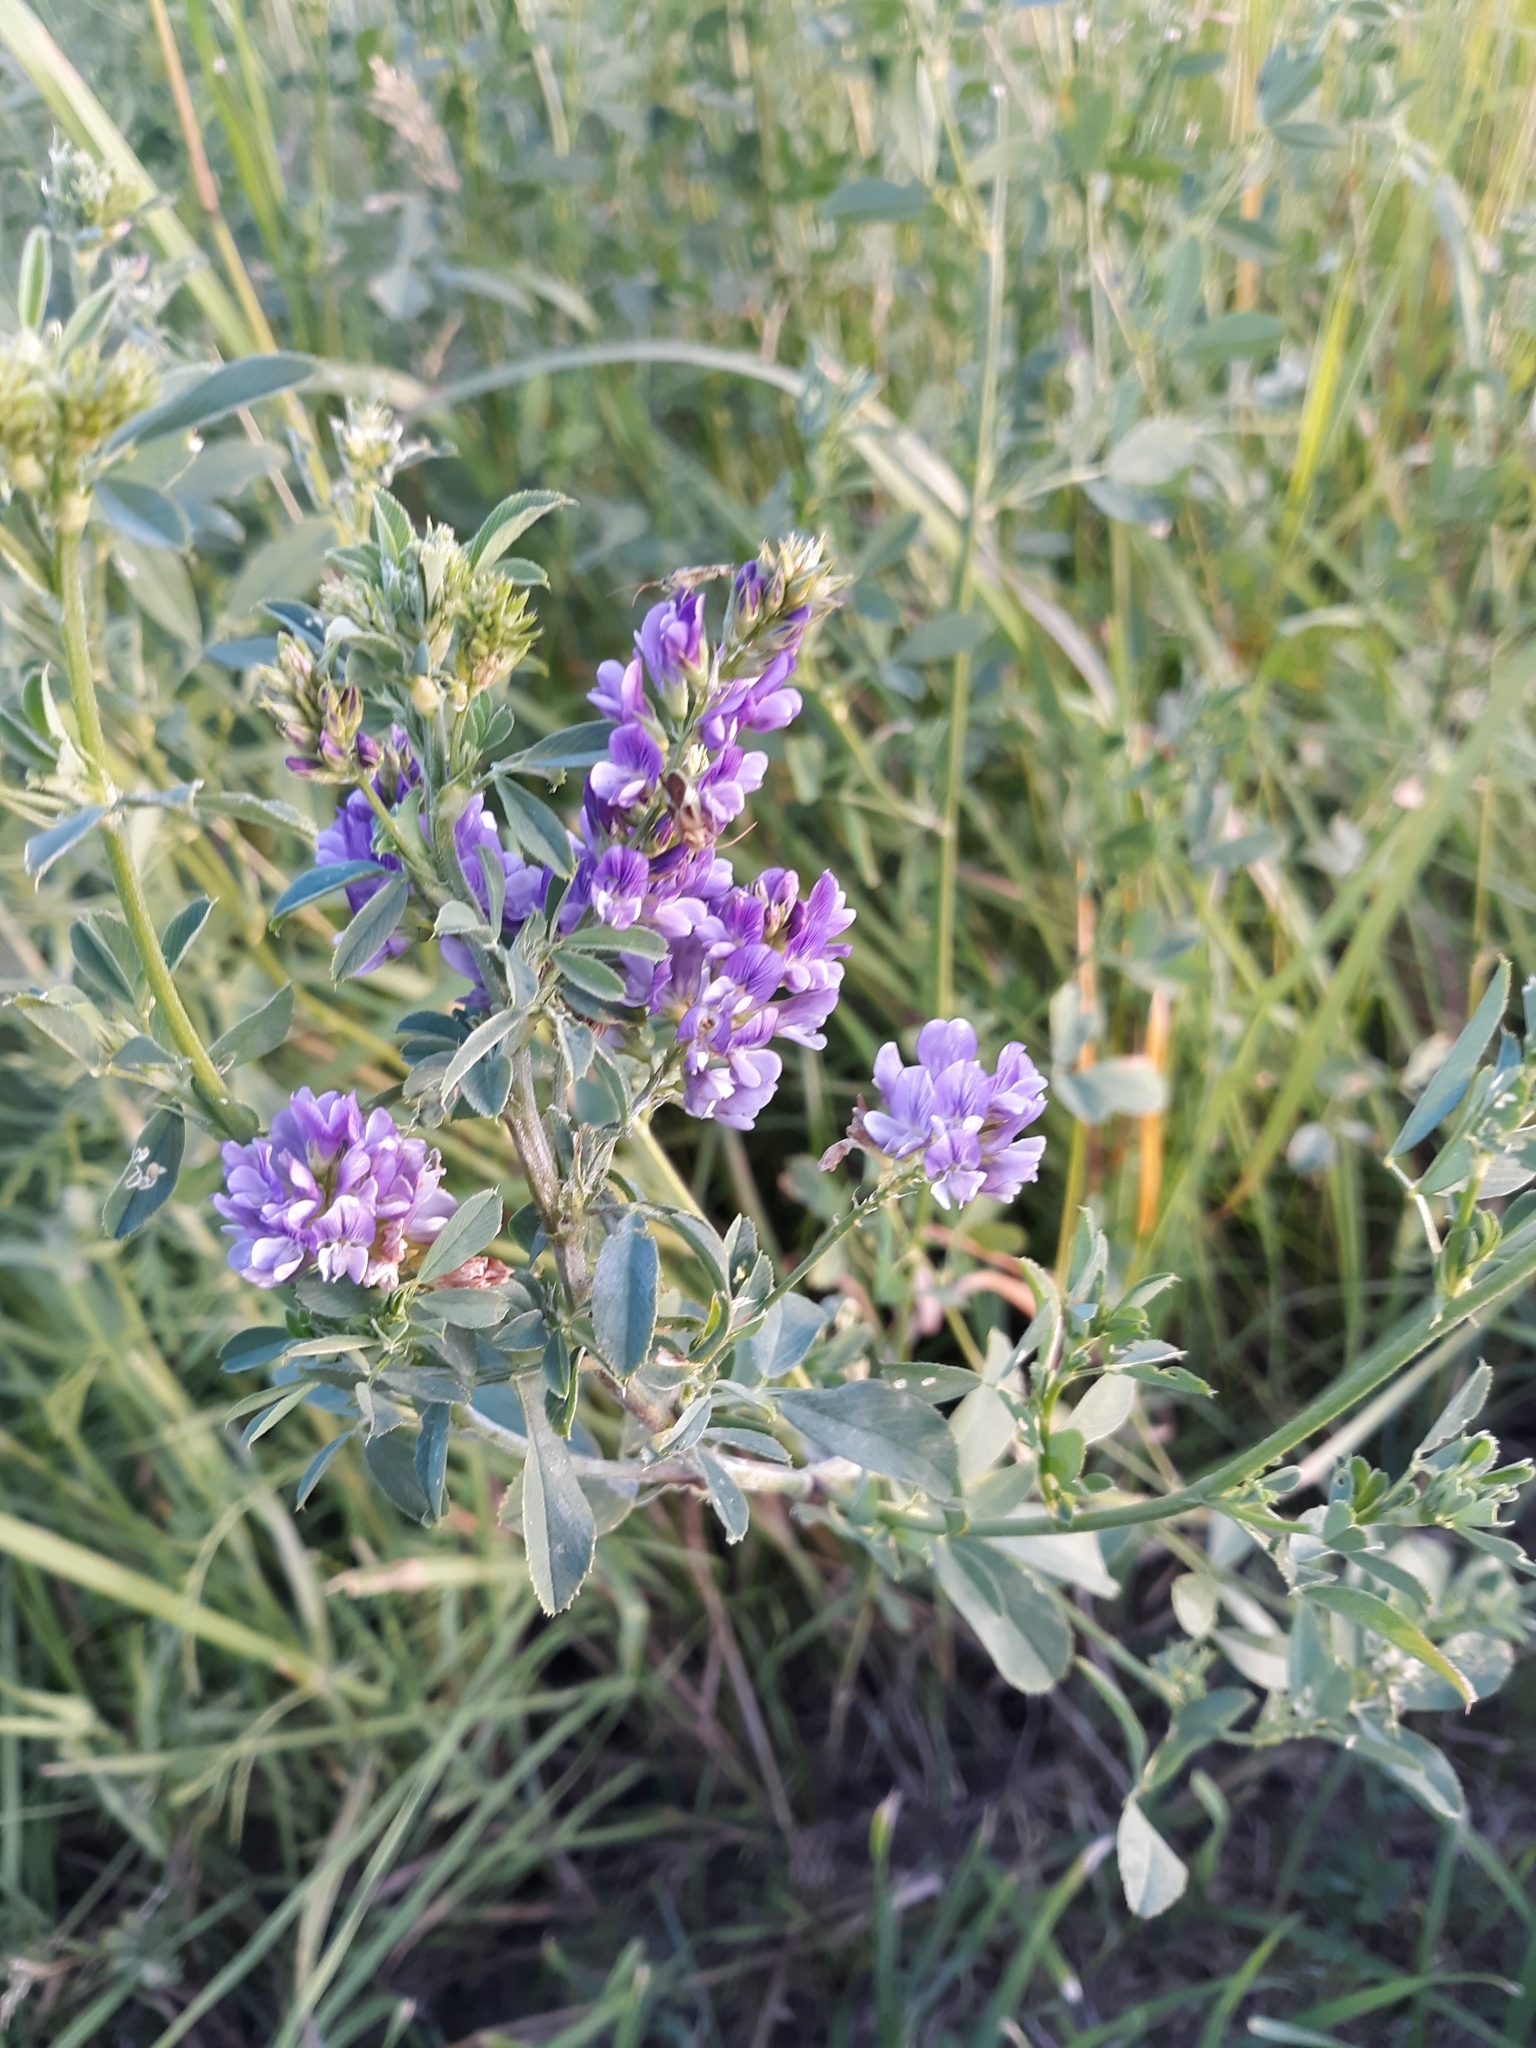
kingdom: Plantae
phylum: Tracheophyta
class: Magnoliopsida
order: Fabales
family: Fabaceae
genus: Medicago
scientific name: Medicago sativa
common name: Alfalfa
